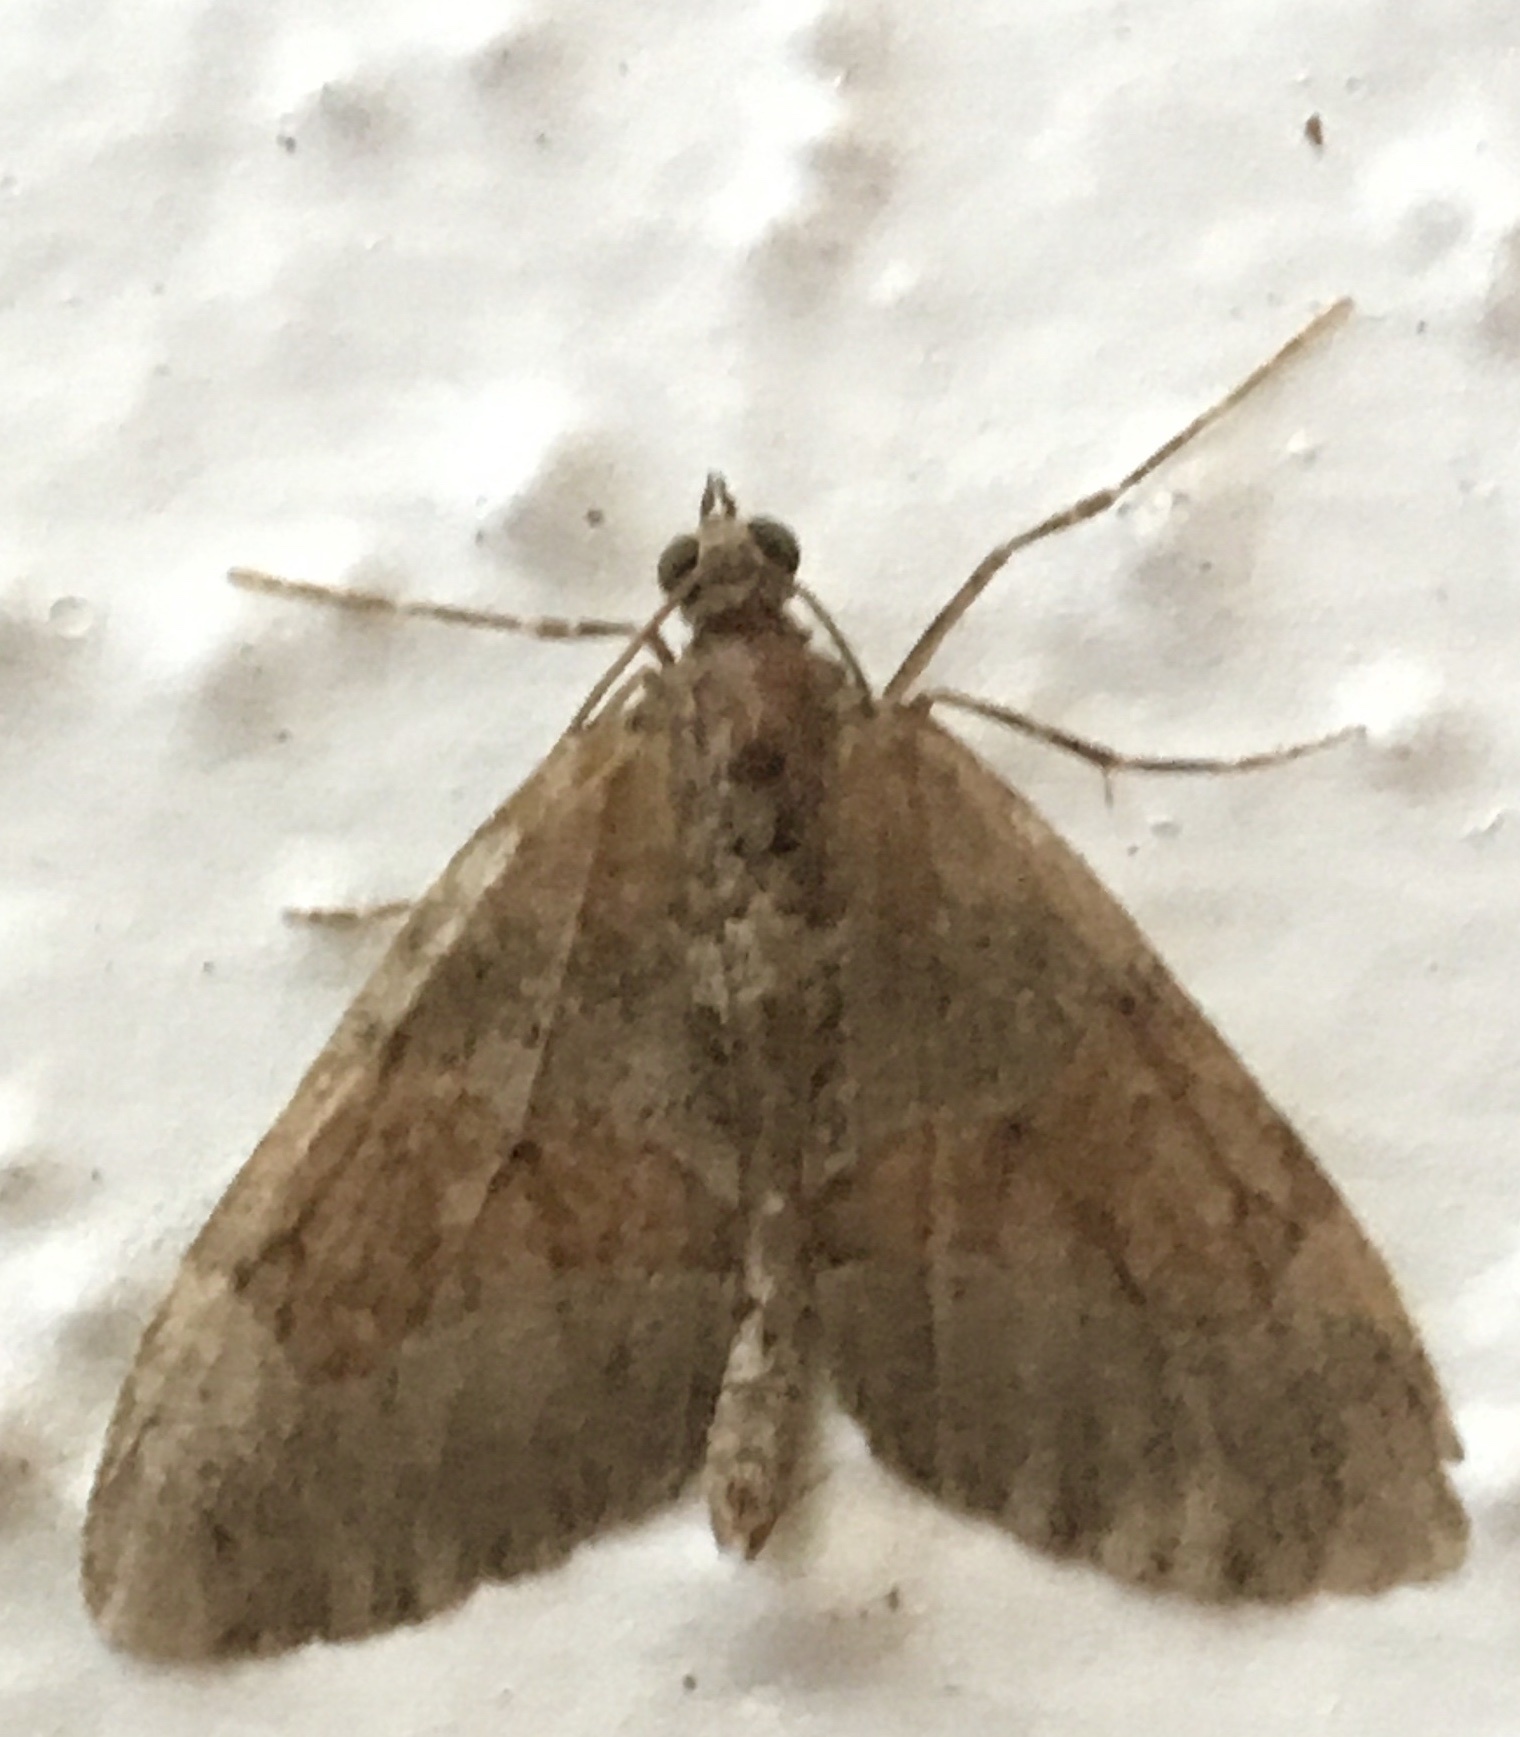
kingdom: Animalia
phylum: Arthropoda
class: Insecta
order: Lepidoptera
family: Geometridae
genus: Thera
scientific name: Thera obeliscata
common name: Grey pine carpet
